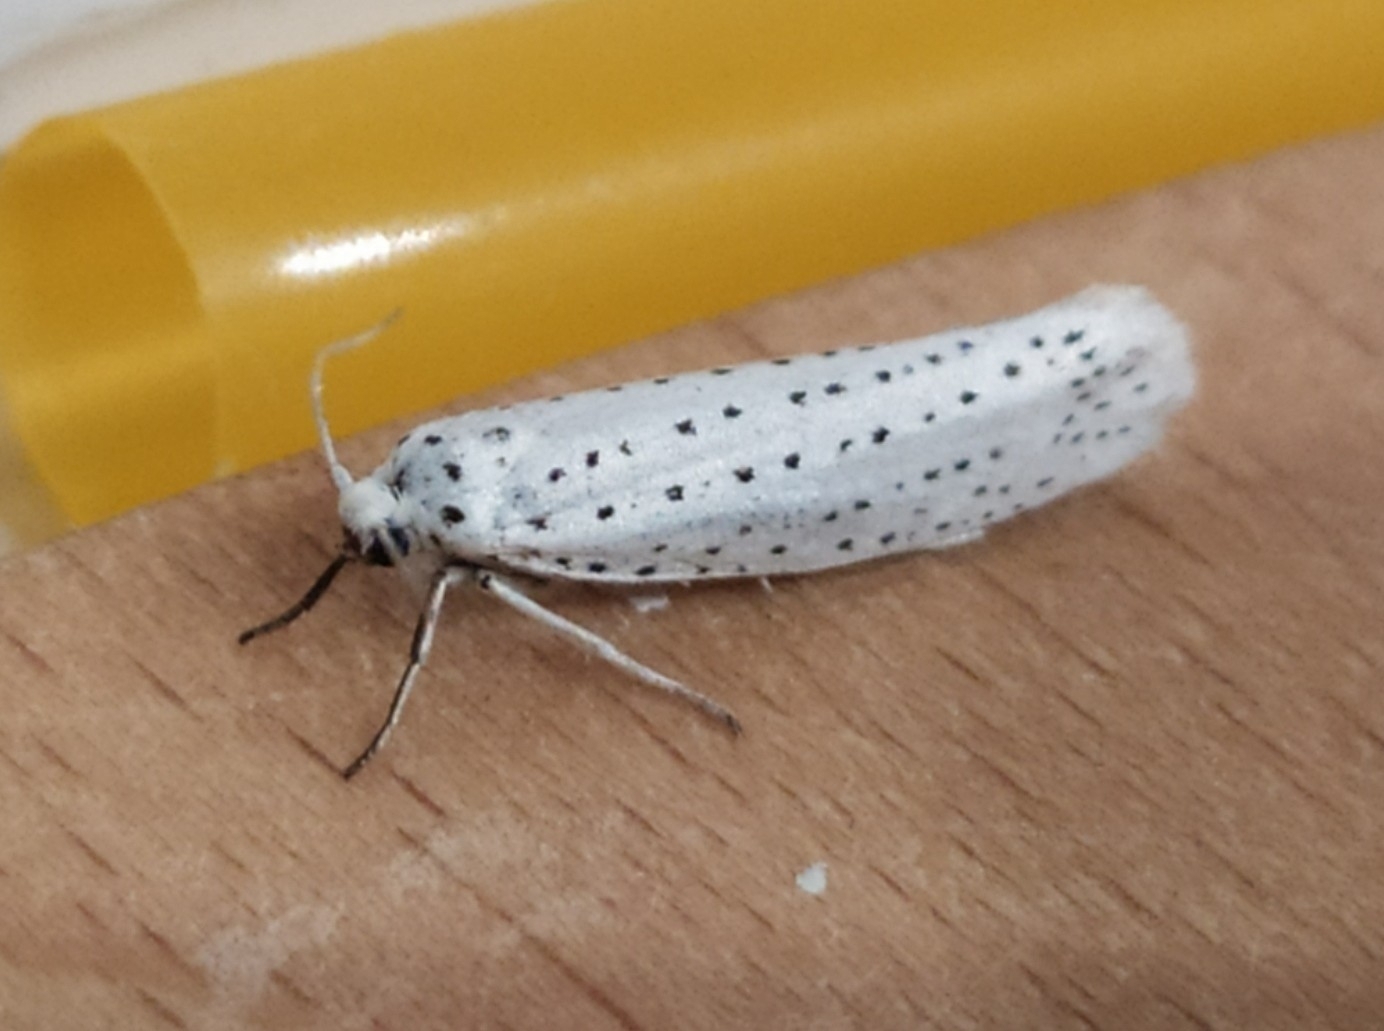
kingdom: Animalia
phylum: Arthropoda
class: Insecta
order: Lepidoptera
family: Yponomeutidae
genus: Yponomeuta
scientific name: Yponomeuta evonymella
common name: Bird-cherry ermine
